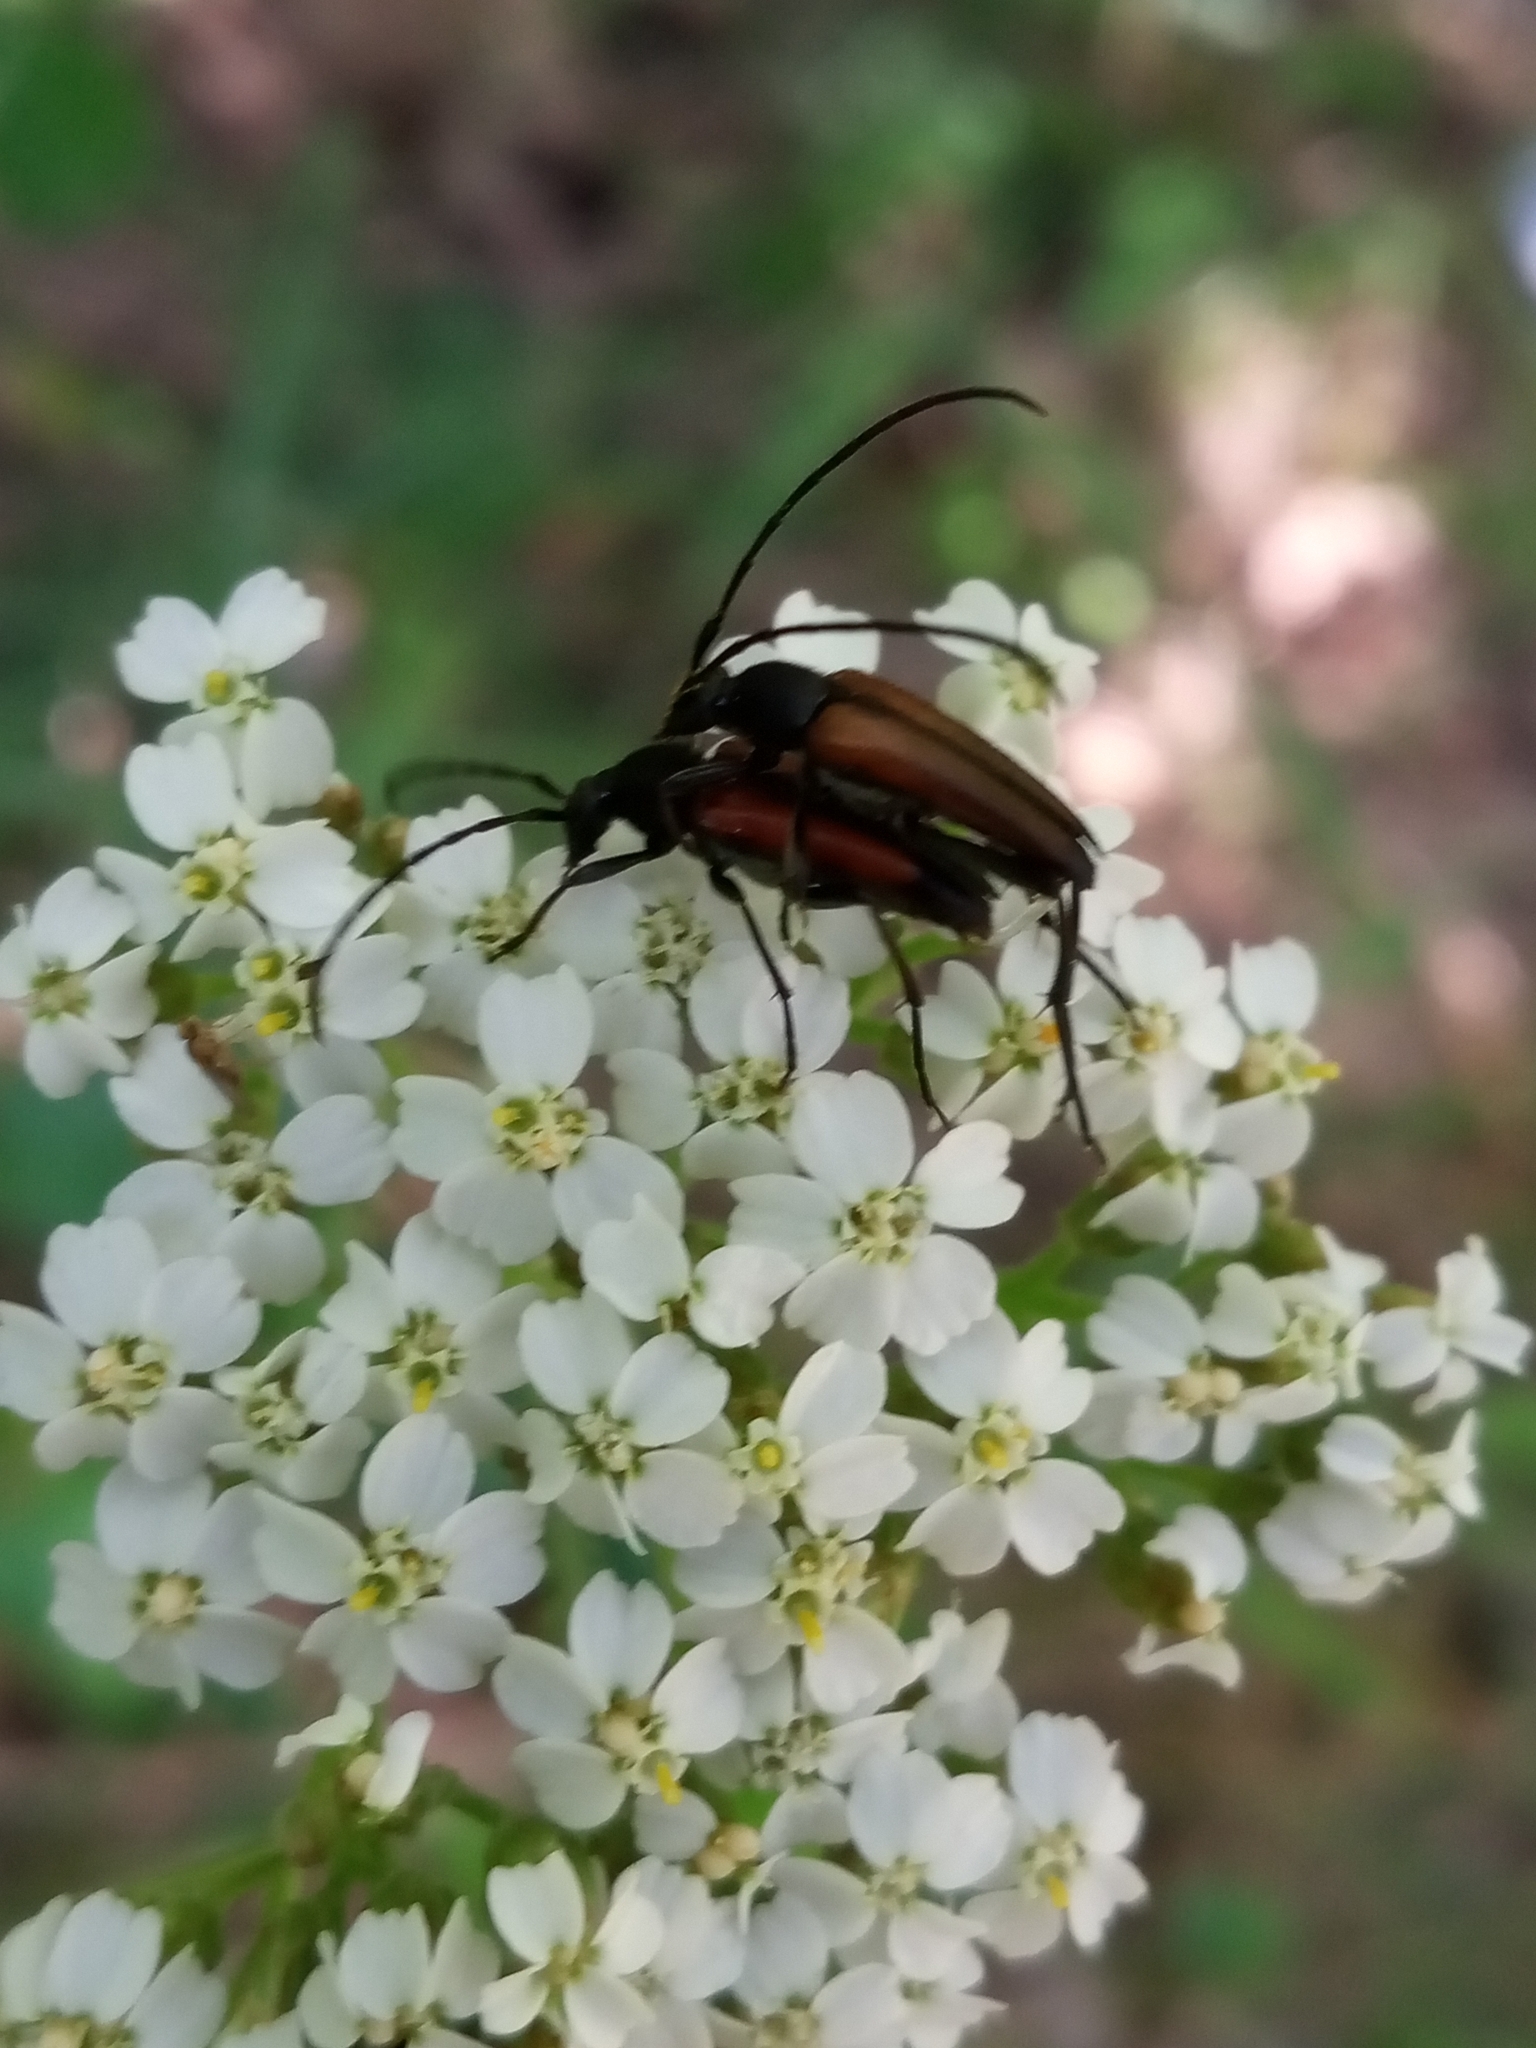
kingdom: Animalia
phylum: Arthropoda
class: Insecta
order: Coleoptera
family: Cerambycidae
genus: Stenurella
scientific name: Stenurella melanura
